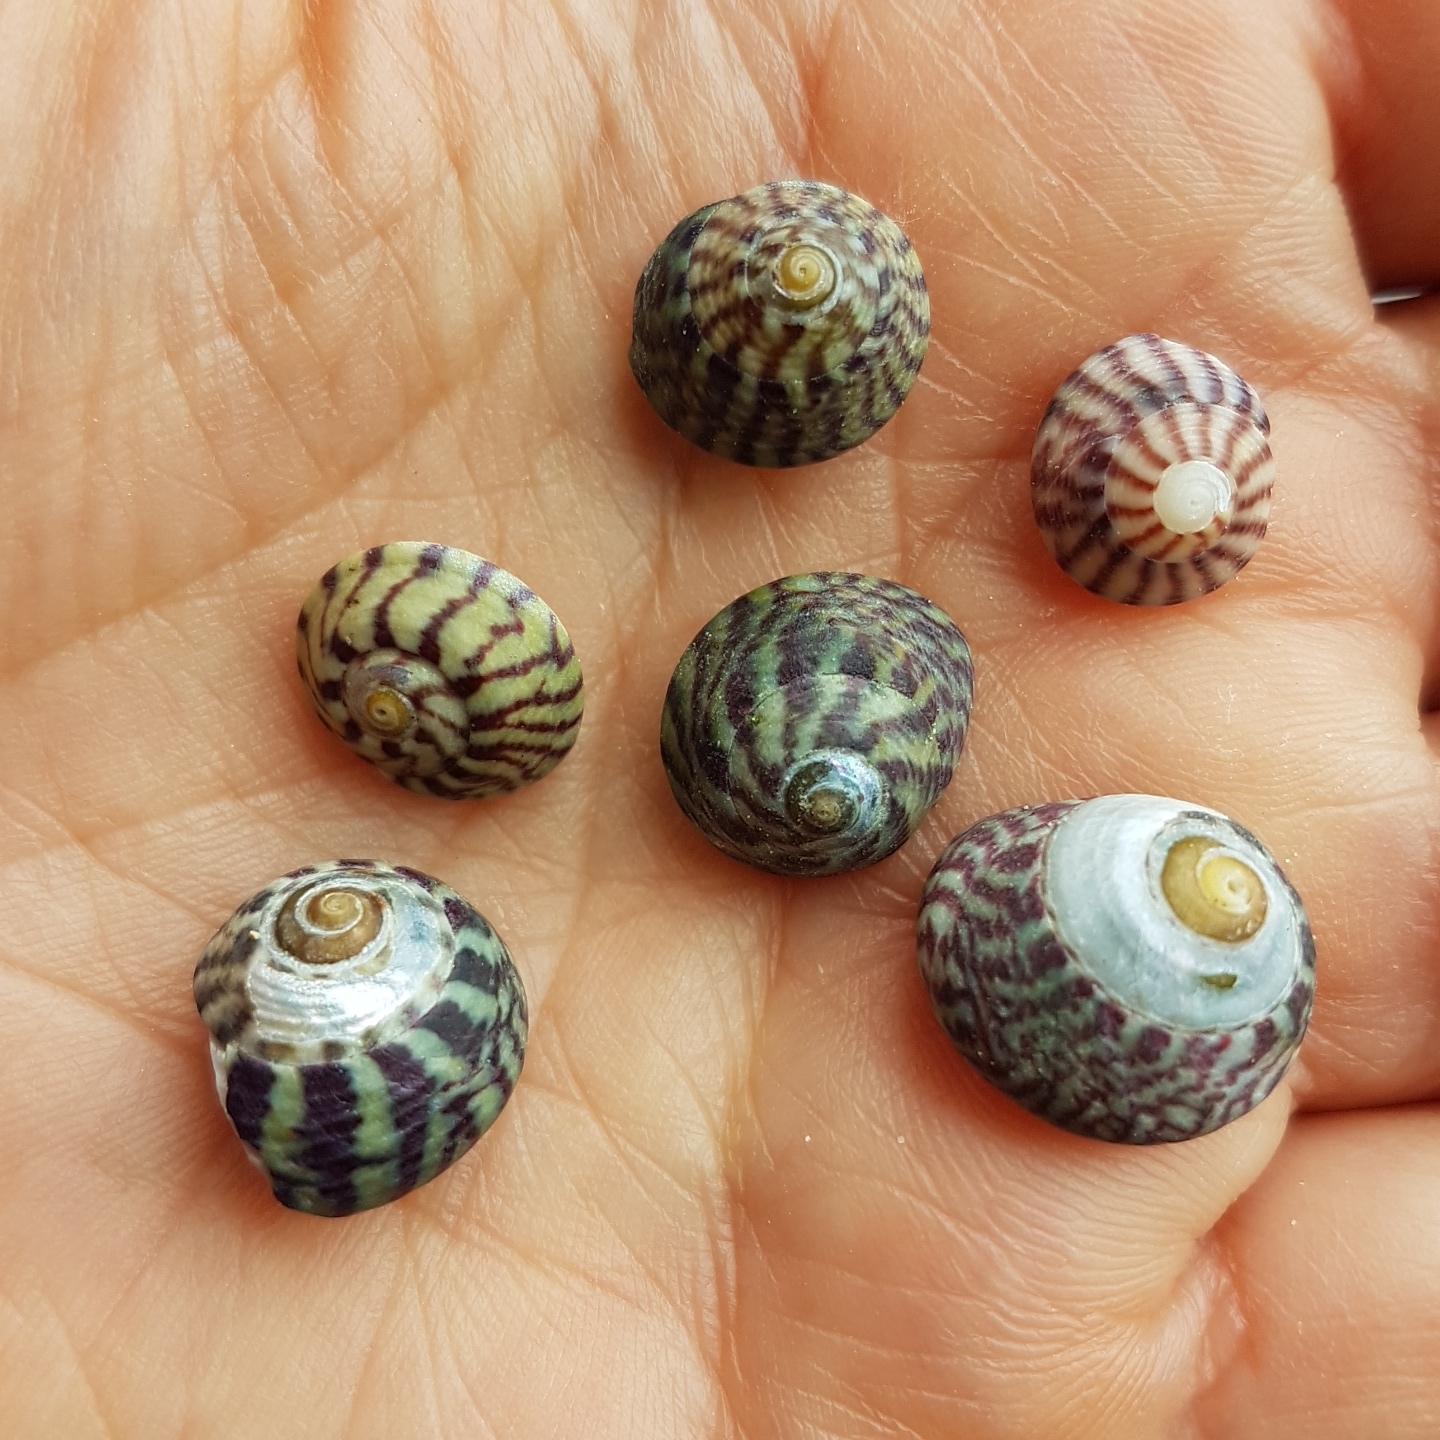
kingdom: Animalia
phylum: Mollusca
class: Gastropoda
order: Trochida
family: Trochidae
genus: Steromphala
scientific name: Steromphala umbilicalis
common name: Flat top shell
